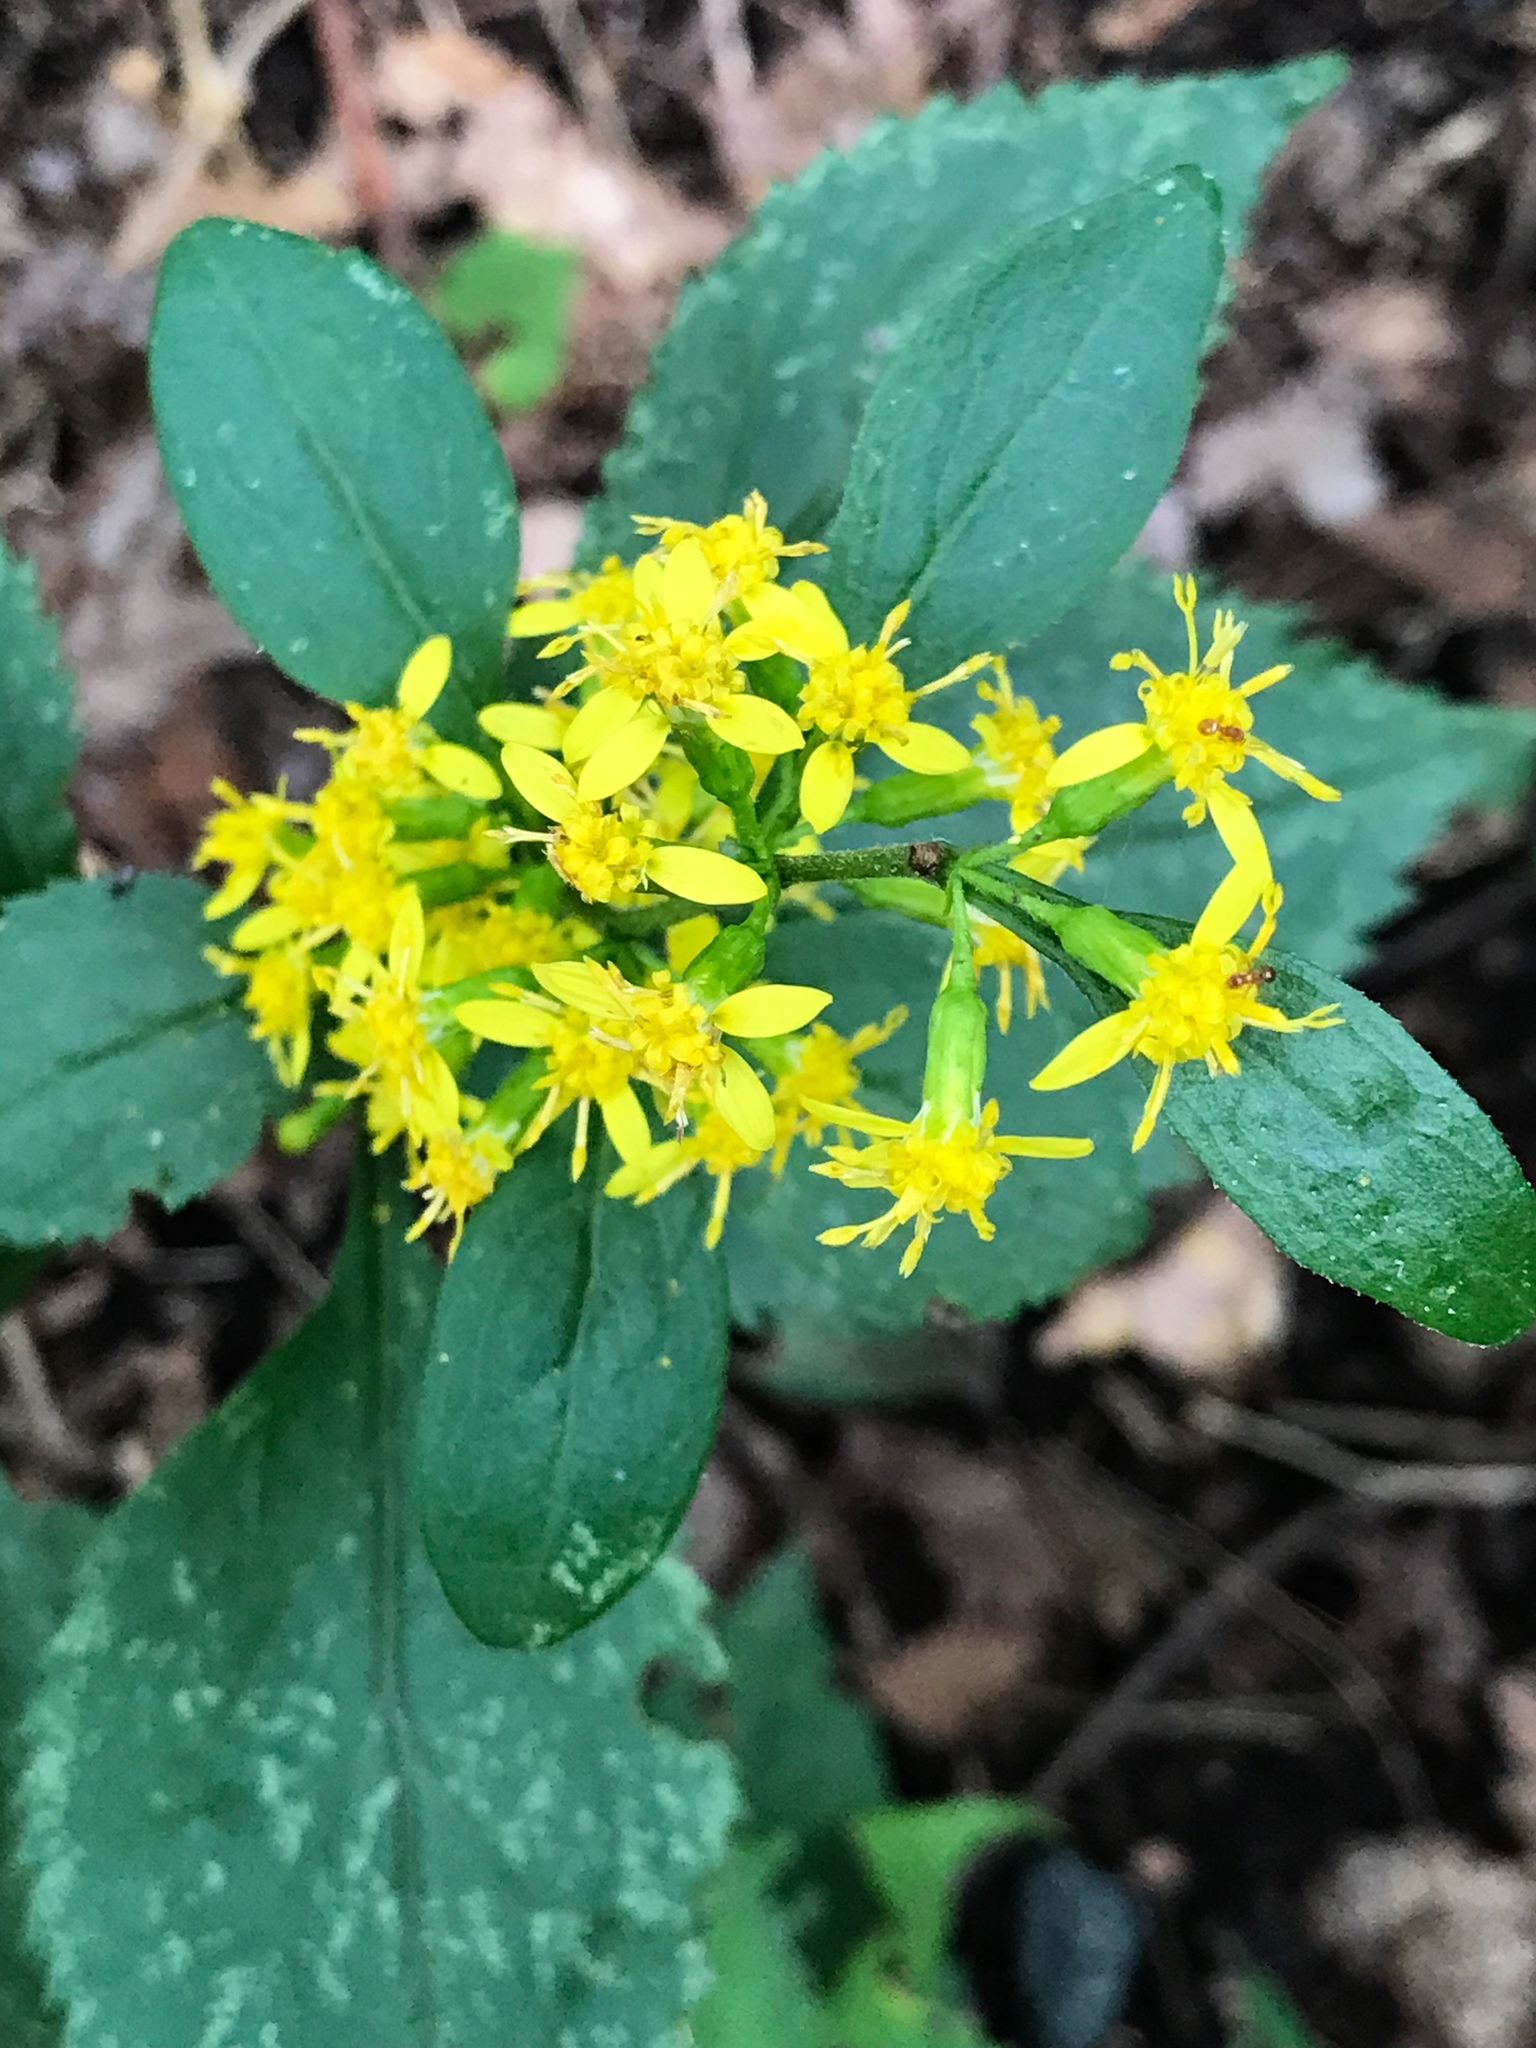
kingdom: Plantae
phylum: Tracheophyta
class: Magnoliopsida
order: Asterales
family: Asteraceae
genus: Solidago
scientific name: Solidago flexicaulis
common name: Zig-zag goldenrod
